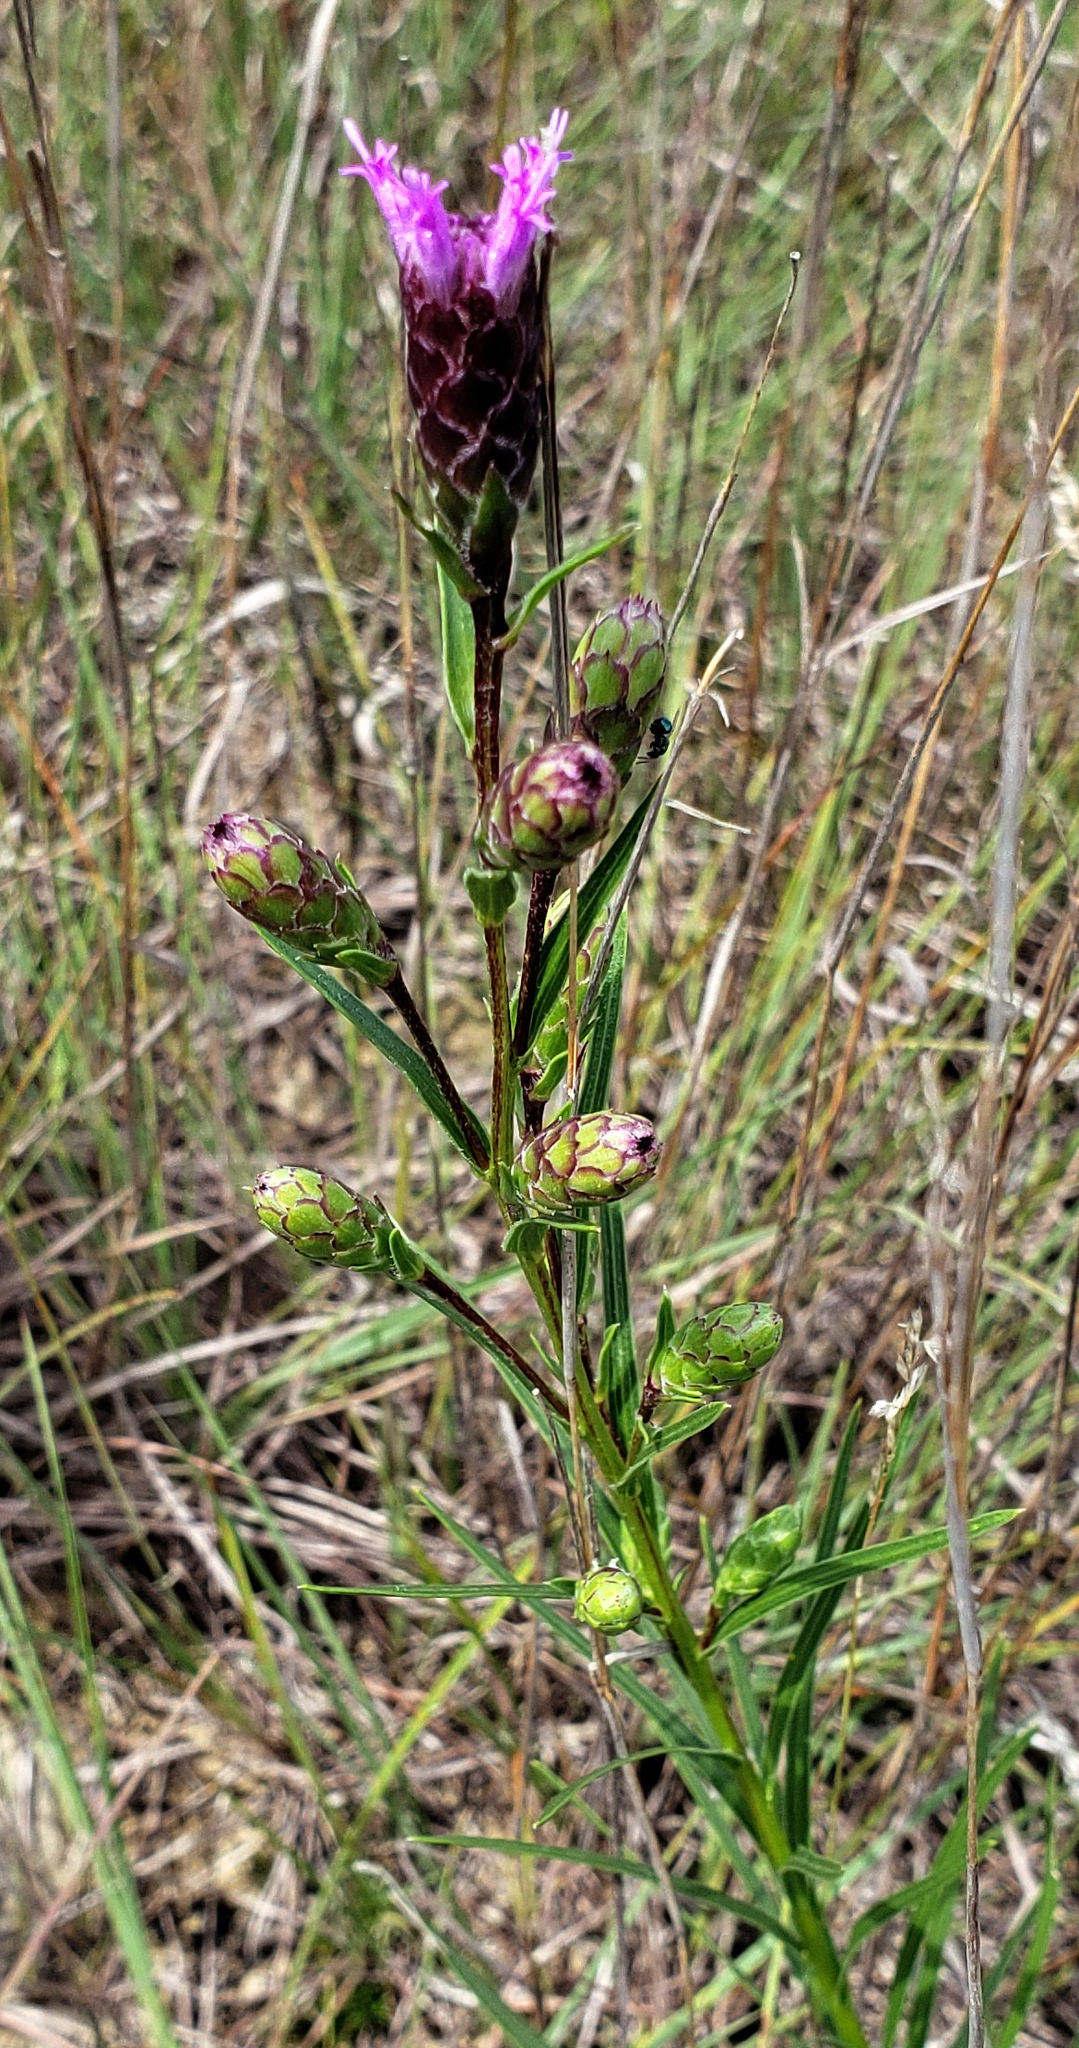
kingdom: Plantae
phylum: Tracheophyta
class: Magnoliopsida
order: Asterales
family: Asteraceae
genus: Liatris
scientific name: Liatris cylindracea
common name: Few-head blazingstar
